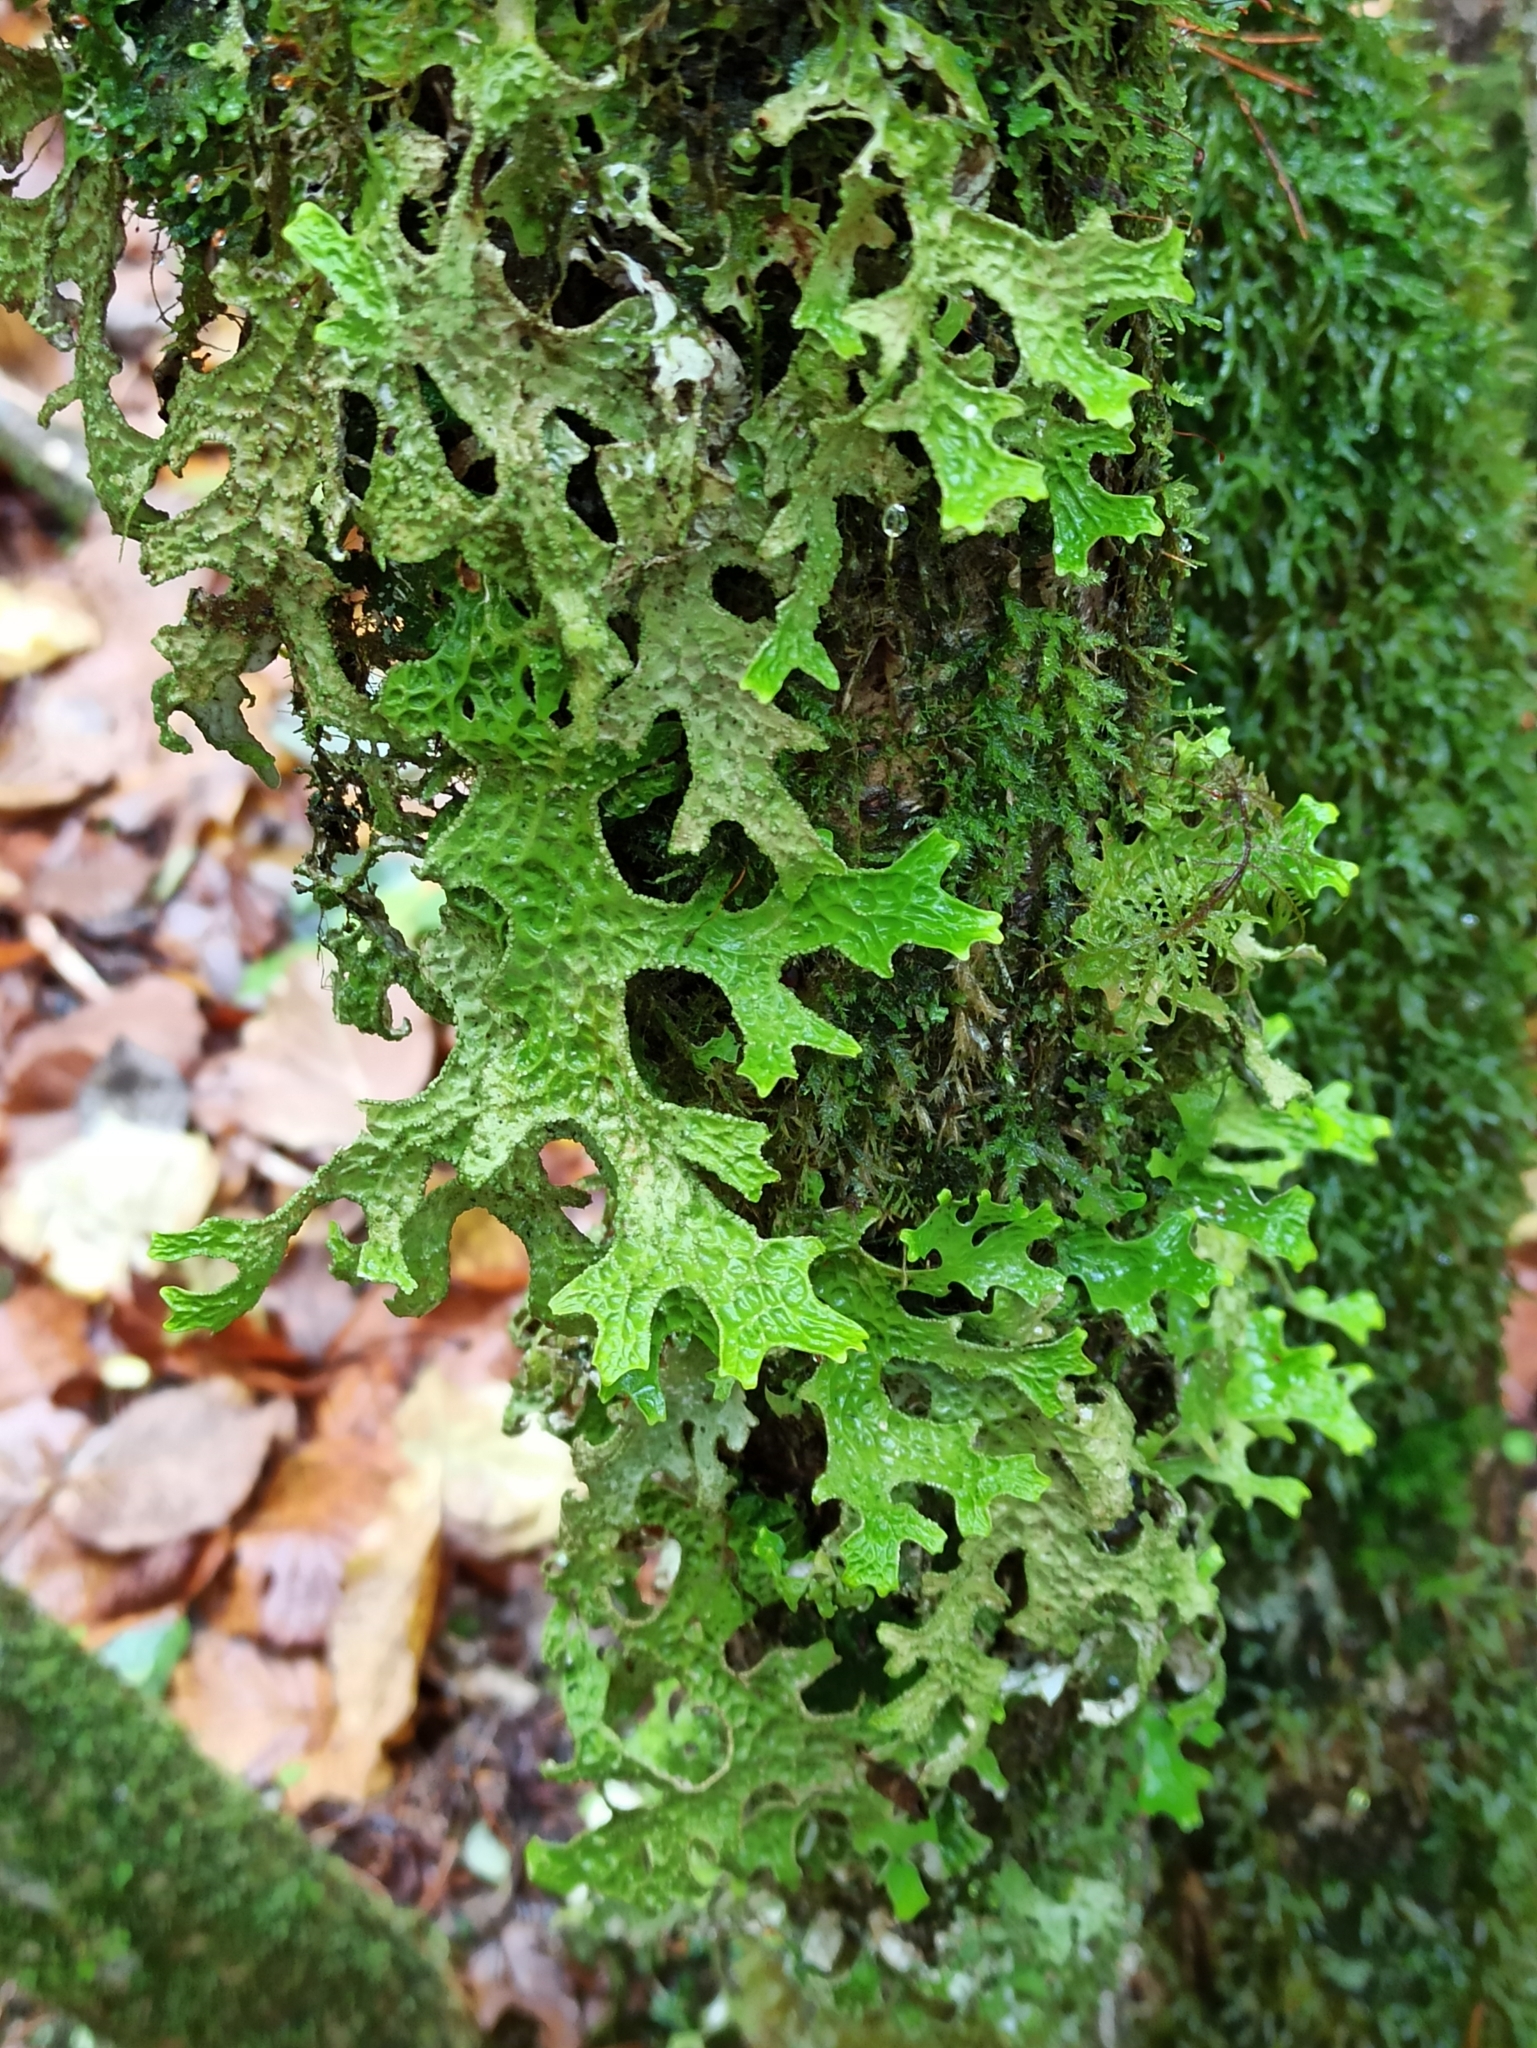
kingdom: Fungi
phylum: Ascomycota
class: Lecanoromycetes
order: Peltigerales
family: Lobariaceae
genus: Lobaria
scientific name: Lobaria pulmonaria
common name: Lungwort
